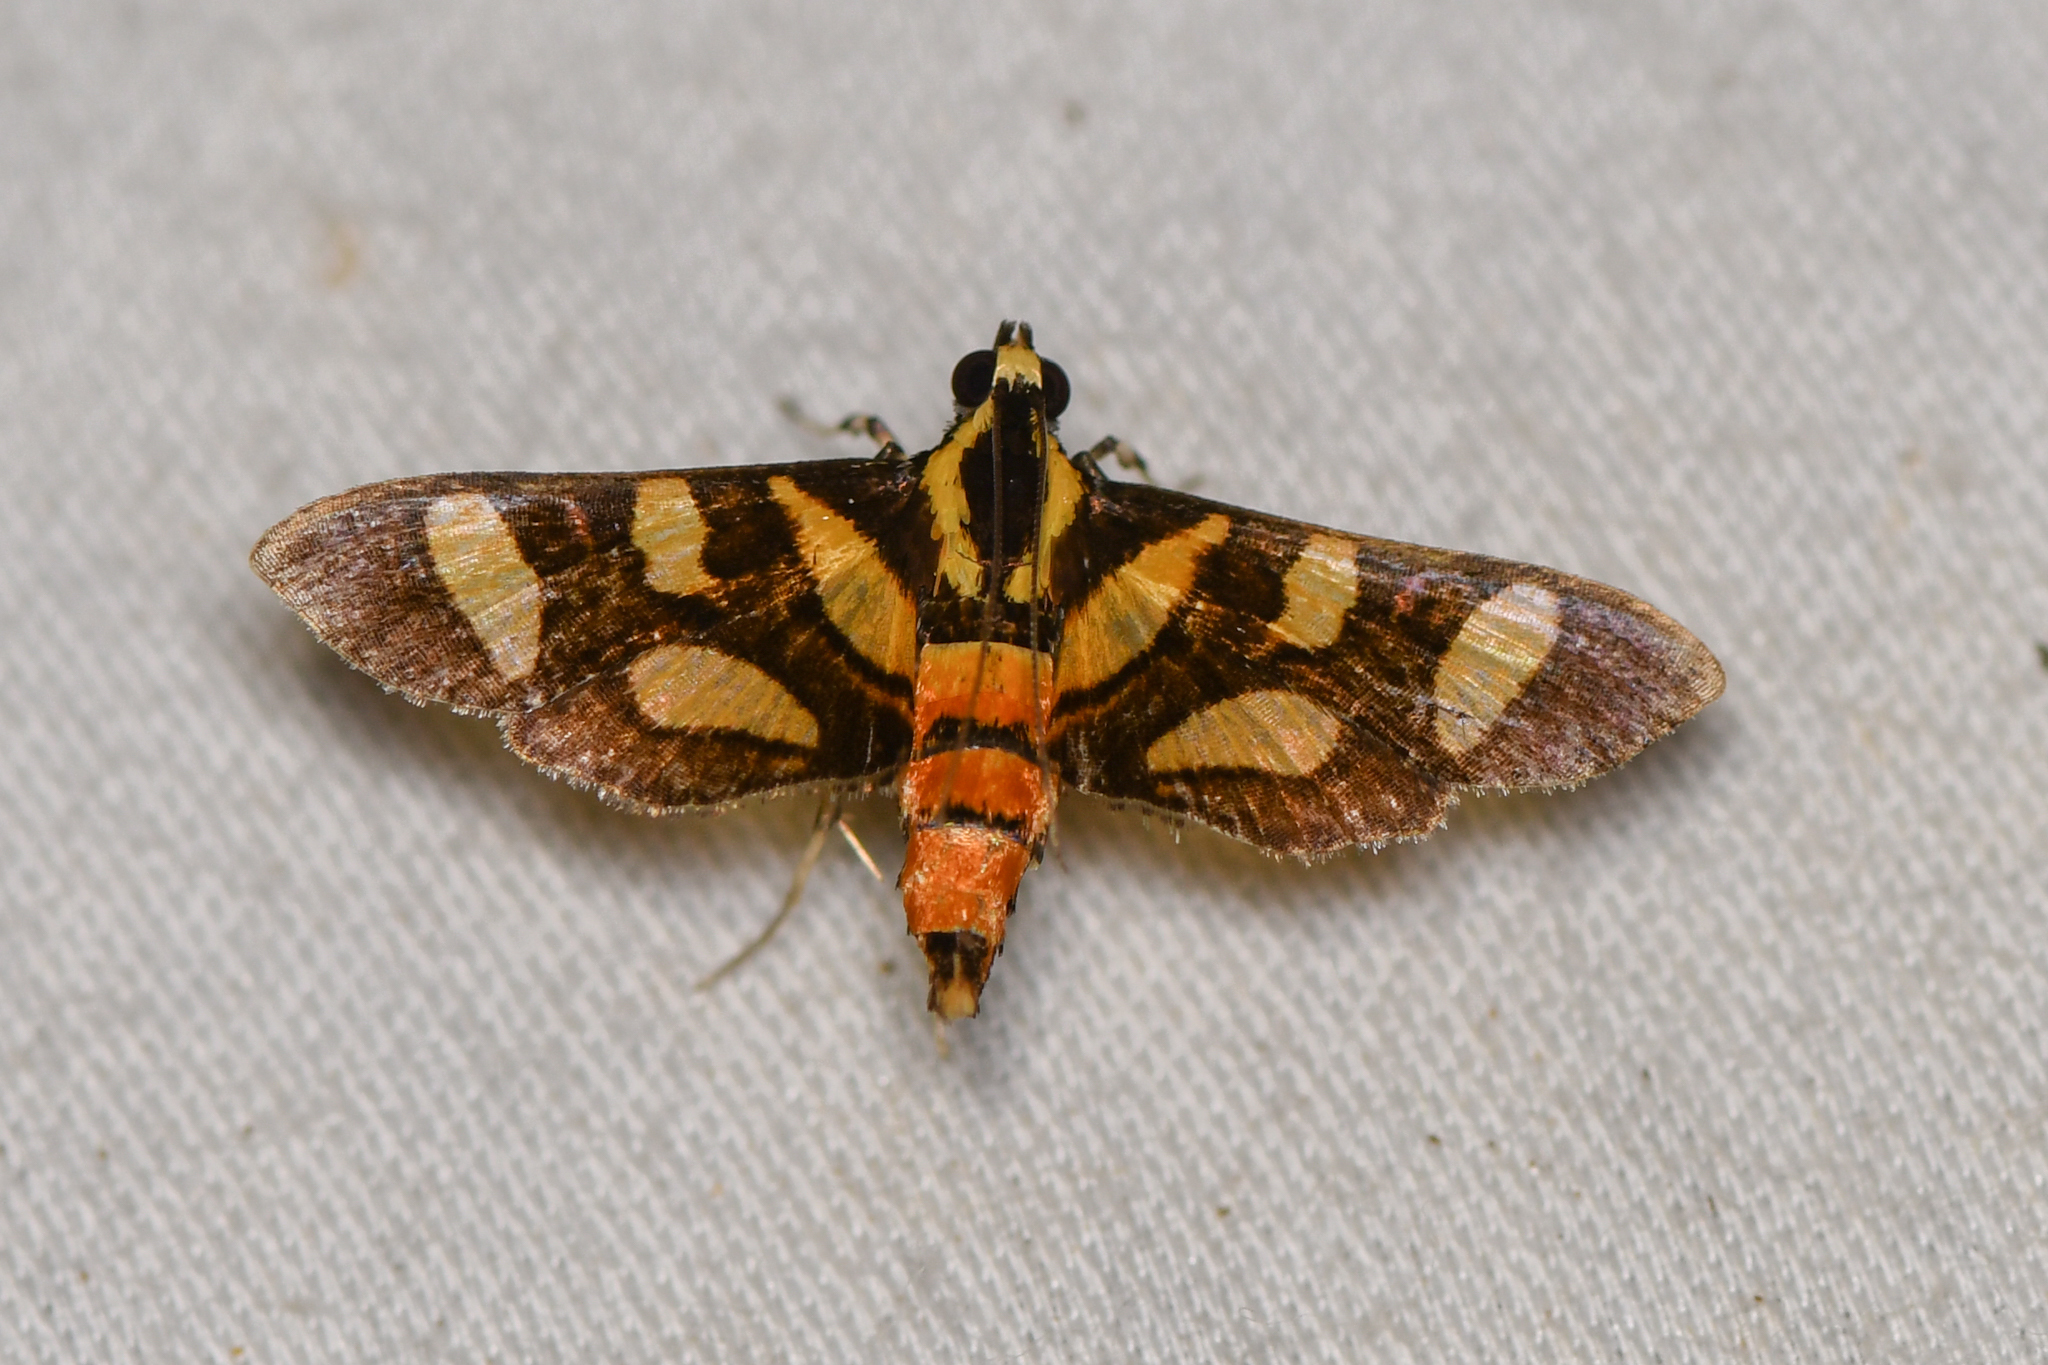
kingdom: Animalia
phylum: Arthropoda
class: Insecta
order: Lepidoptera
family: Crambidae
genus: Syngamia
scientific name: Syngamia florella
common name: Orange-spotted flower moth
